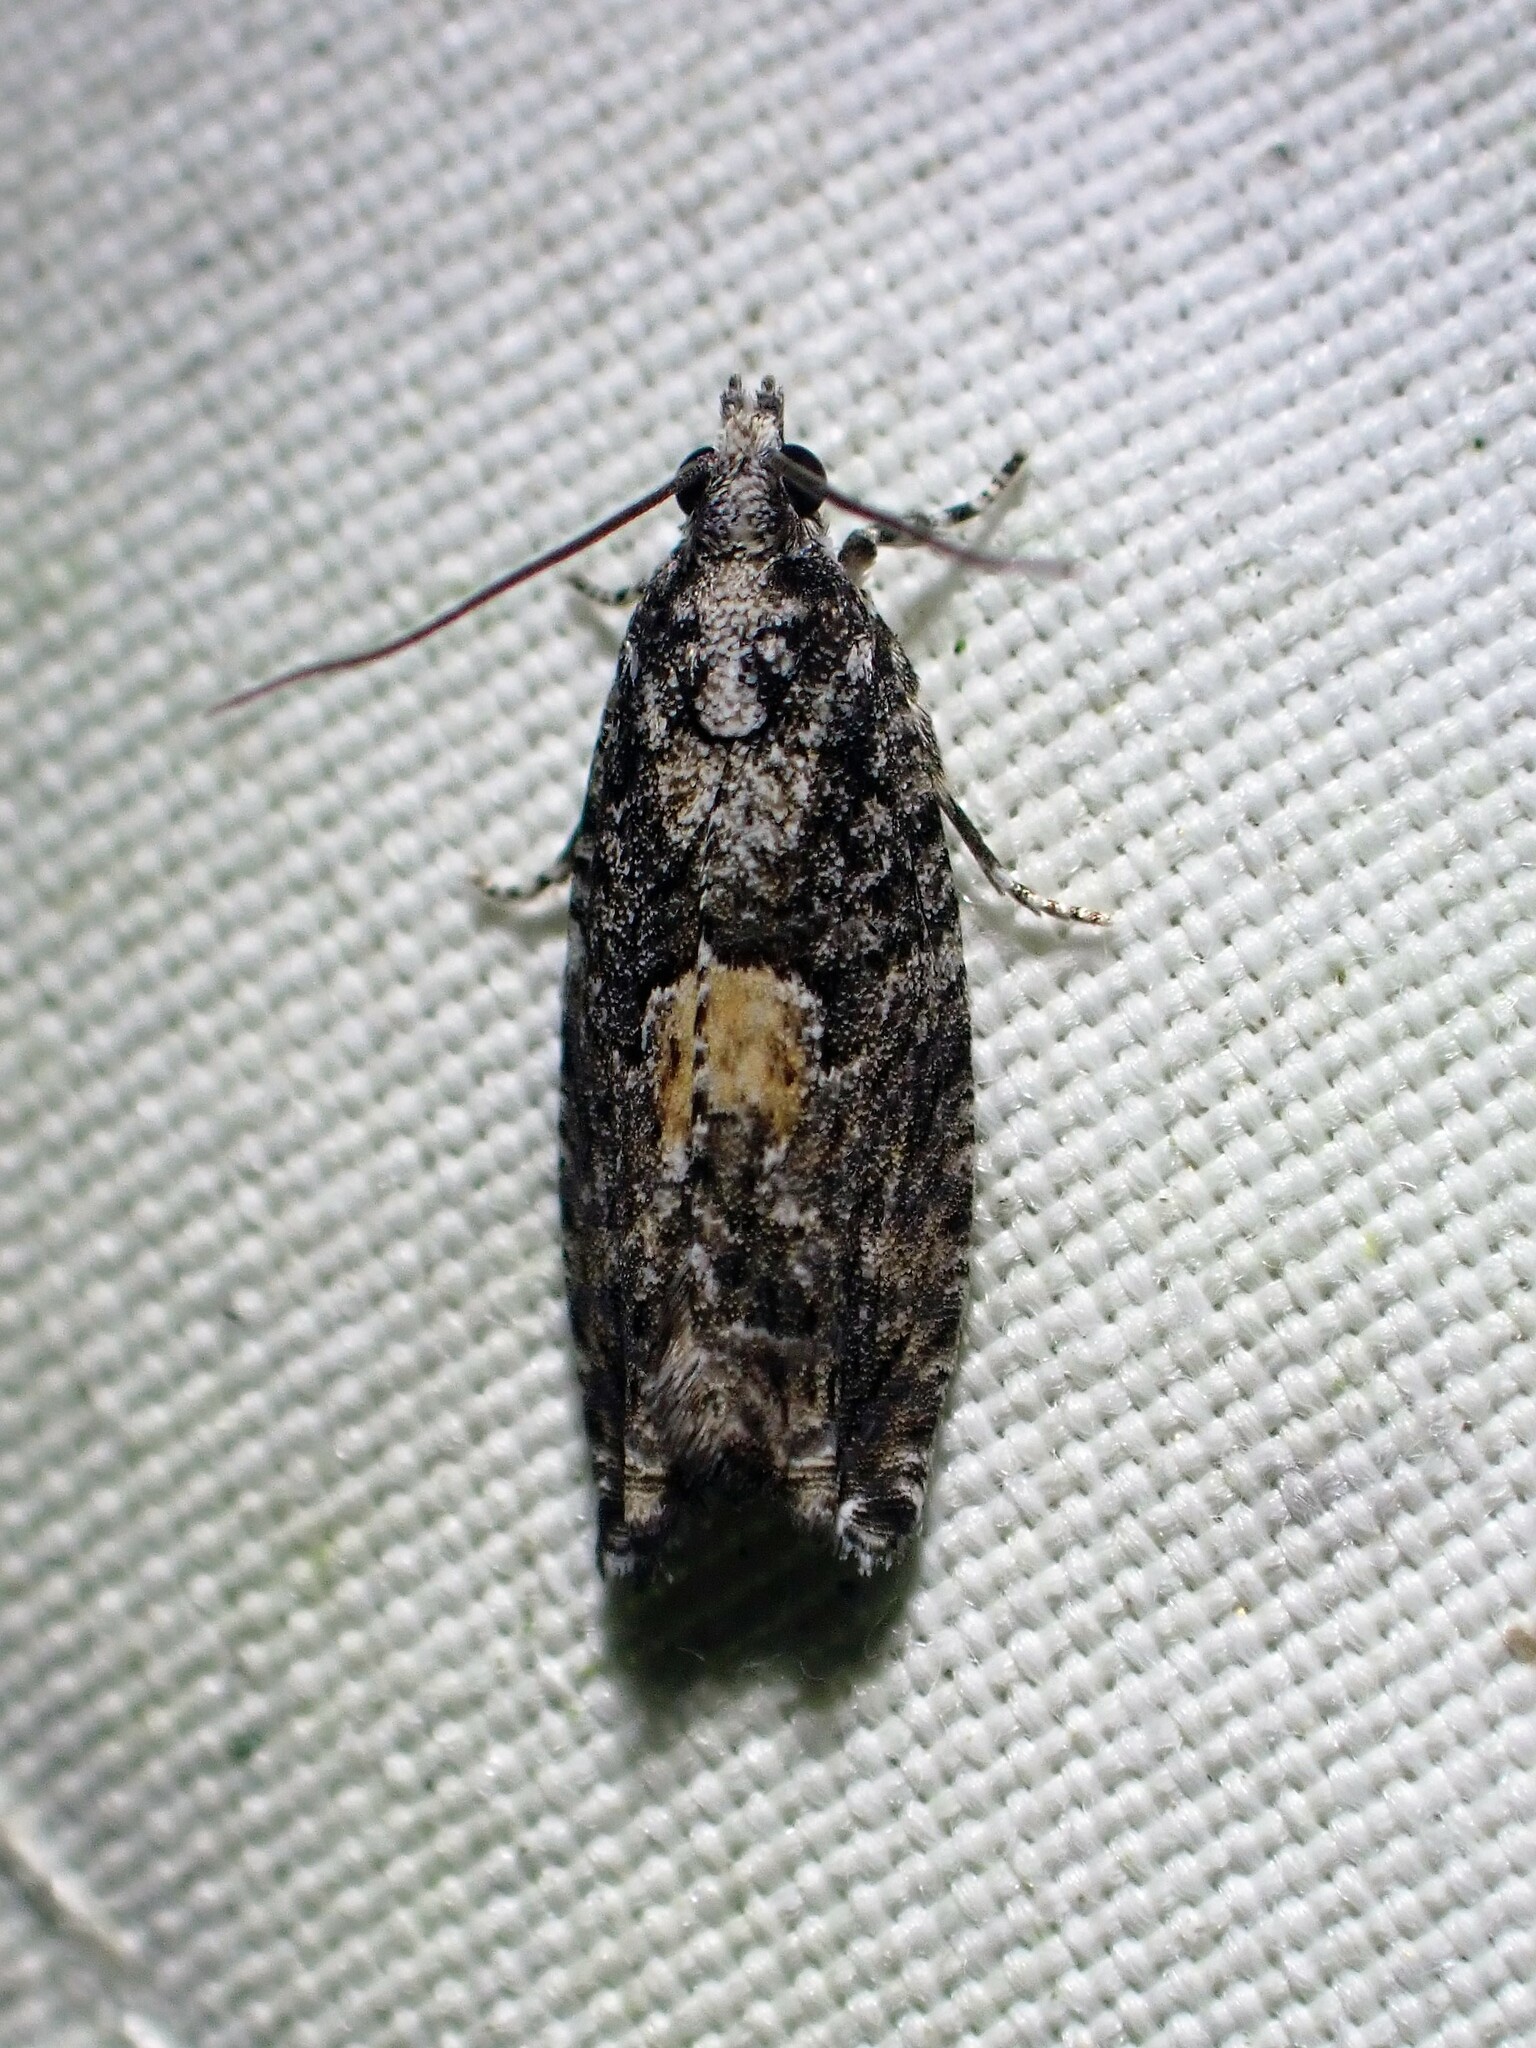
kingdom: Animalia
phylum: Arthropoda
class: Insecta
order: Lepidoptera
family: Tortricidae
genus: Epinotia
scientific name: Epinotia nisella
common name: Grey poplar bell
